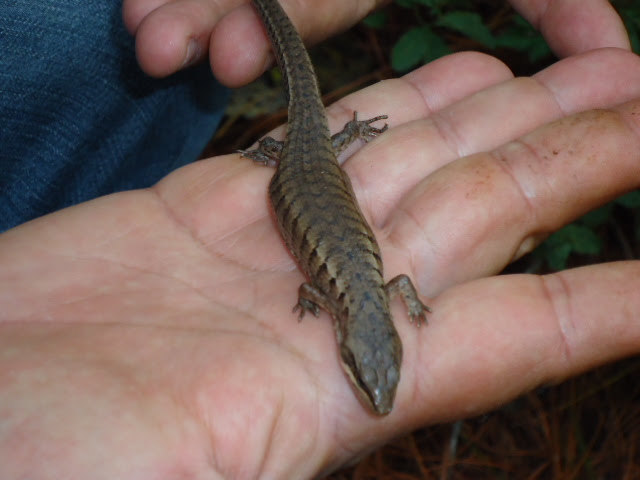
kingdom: Animalia
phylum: Chordata
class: Squamata
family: Anguidae
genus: Abronia
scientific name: Abronia gadovii
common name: Gadow's alligator lizard
